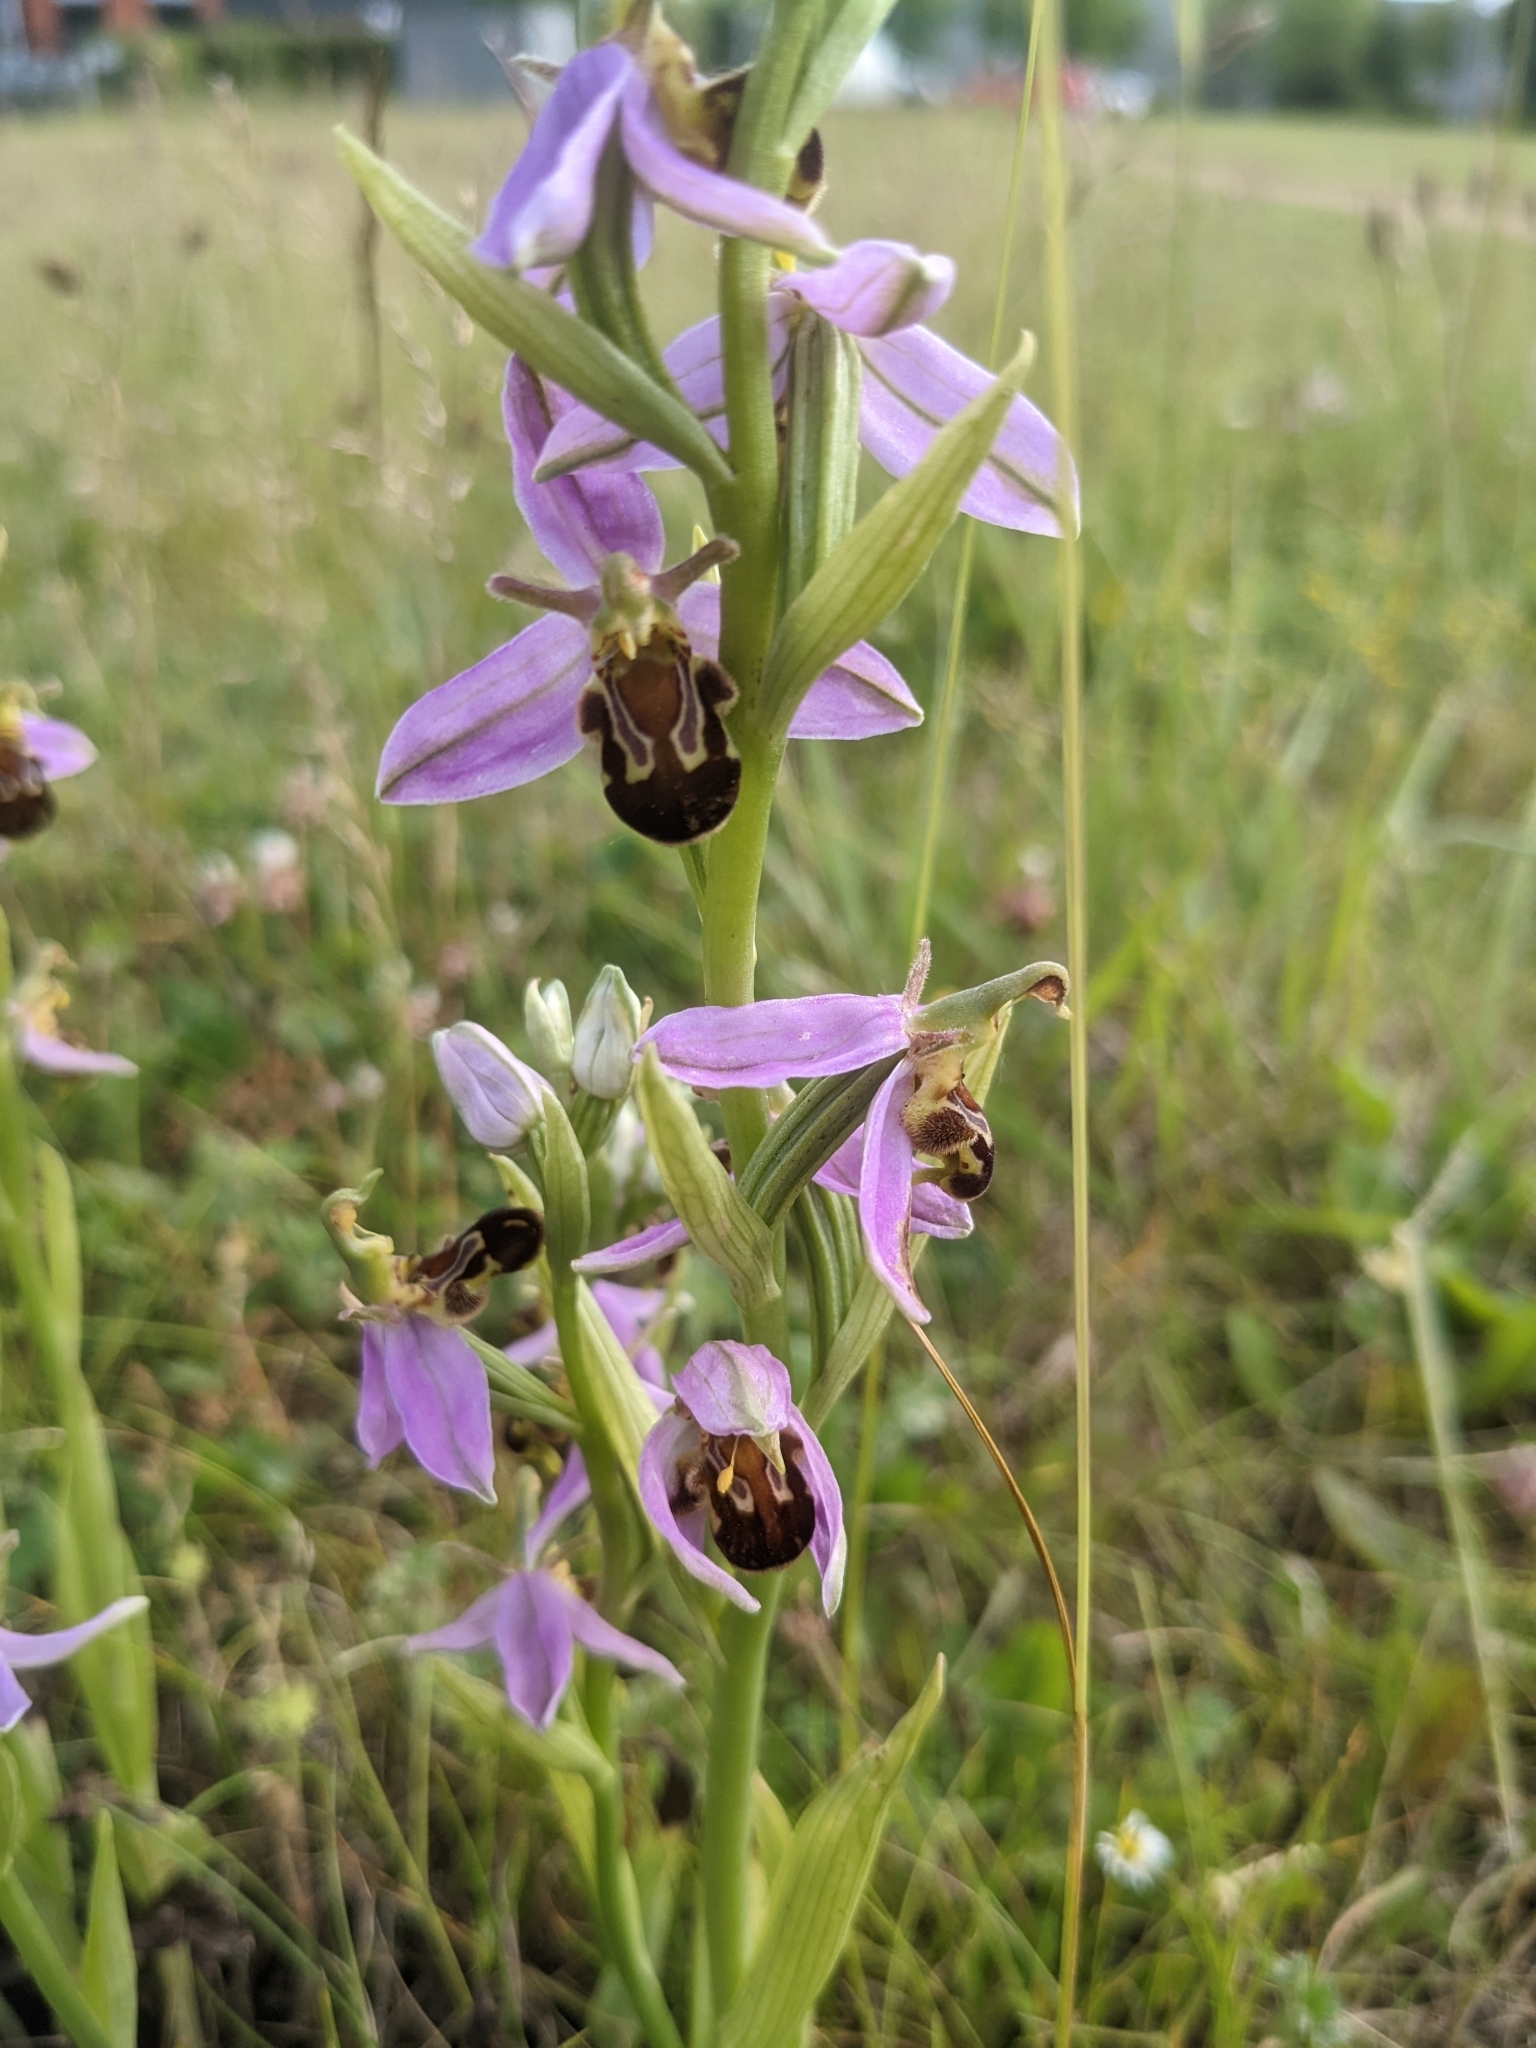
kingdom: Plantae
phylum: Tracheophyta
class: Liliopsida
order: Asparagales
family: Orchidaceae
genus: Ophrys
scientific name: Ophrys apifera
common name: Bee orchid
